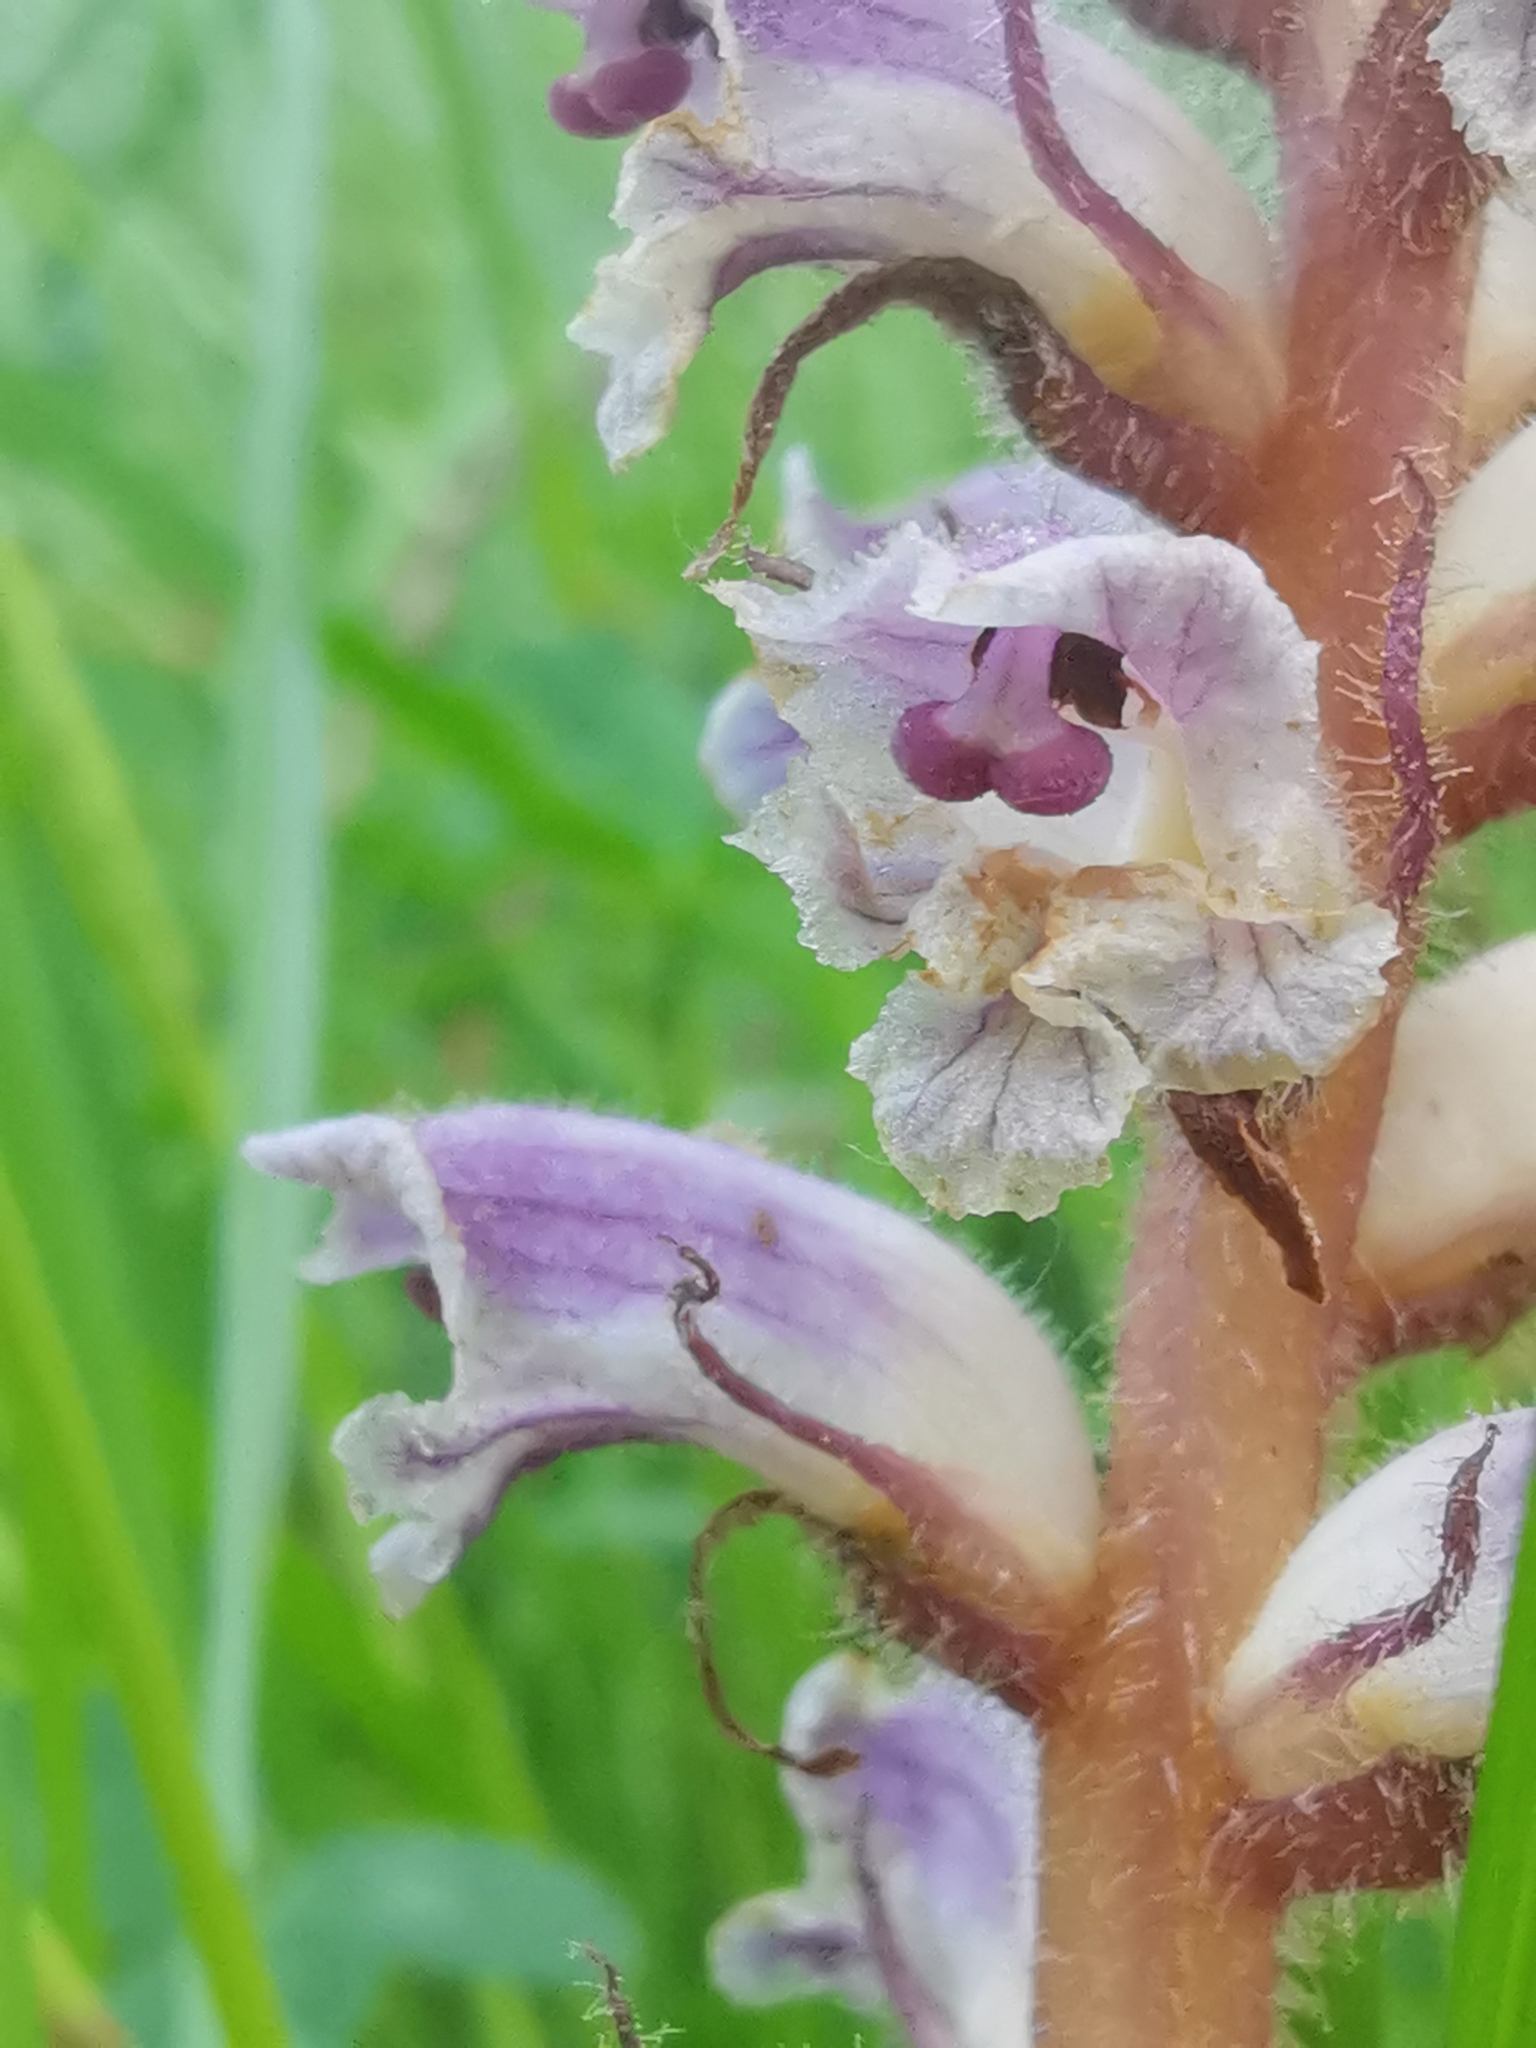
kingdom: Plantae
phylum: Tracheophyta
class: Magnoliopsida
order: Lamiales
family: Orobanchaceae
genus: Orobanche
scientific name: Orobanche minor
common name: Common broomrape
